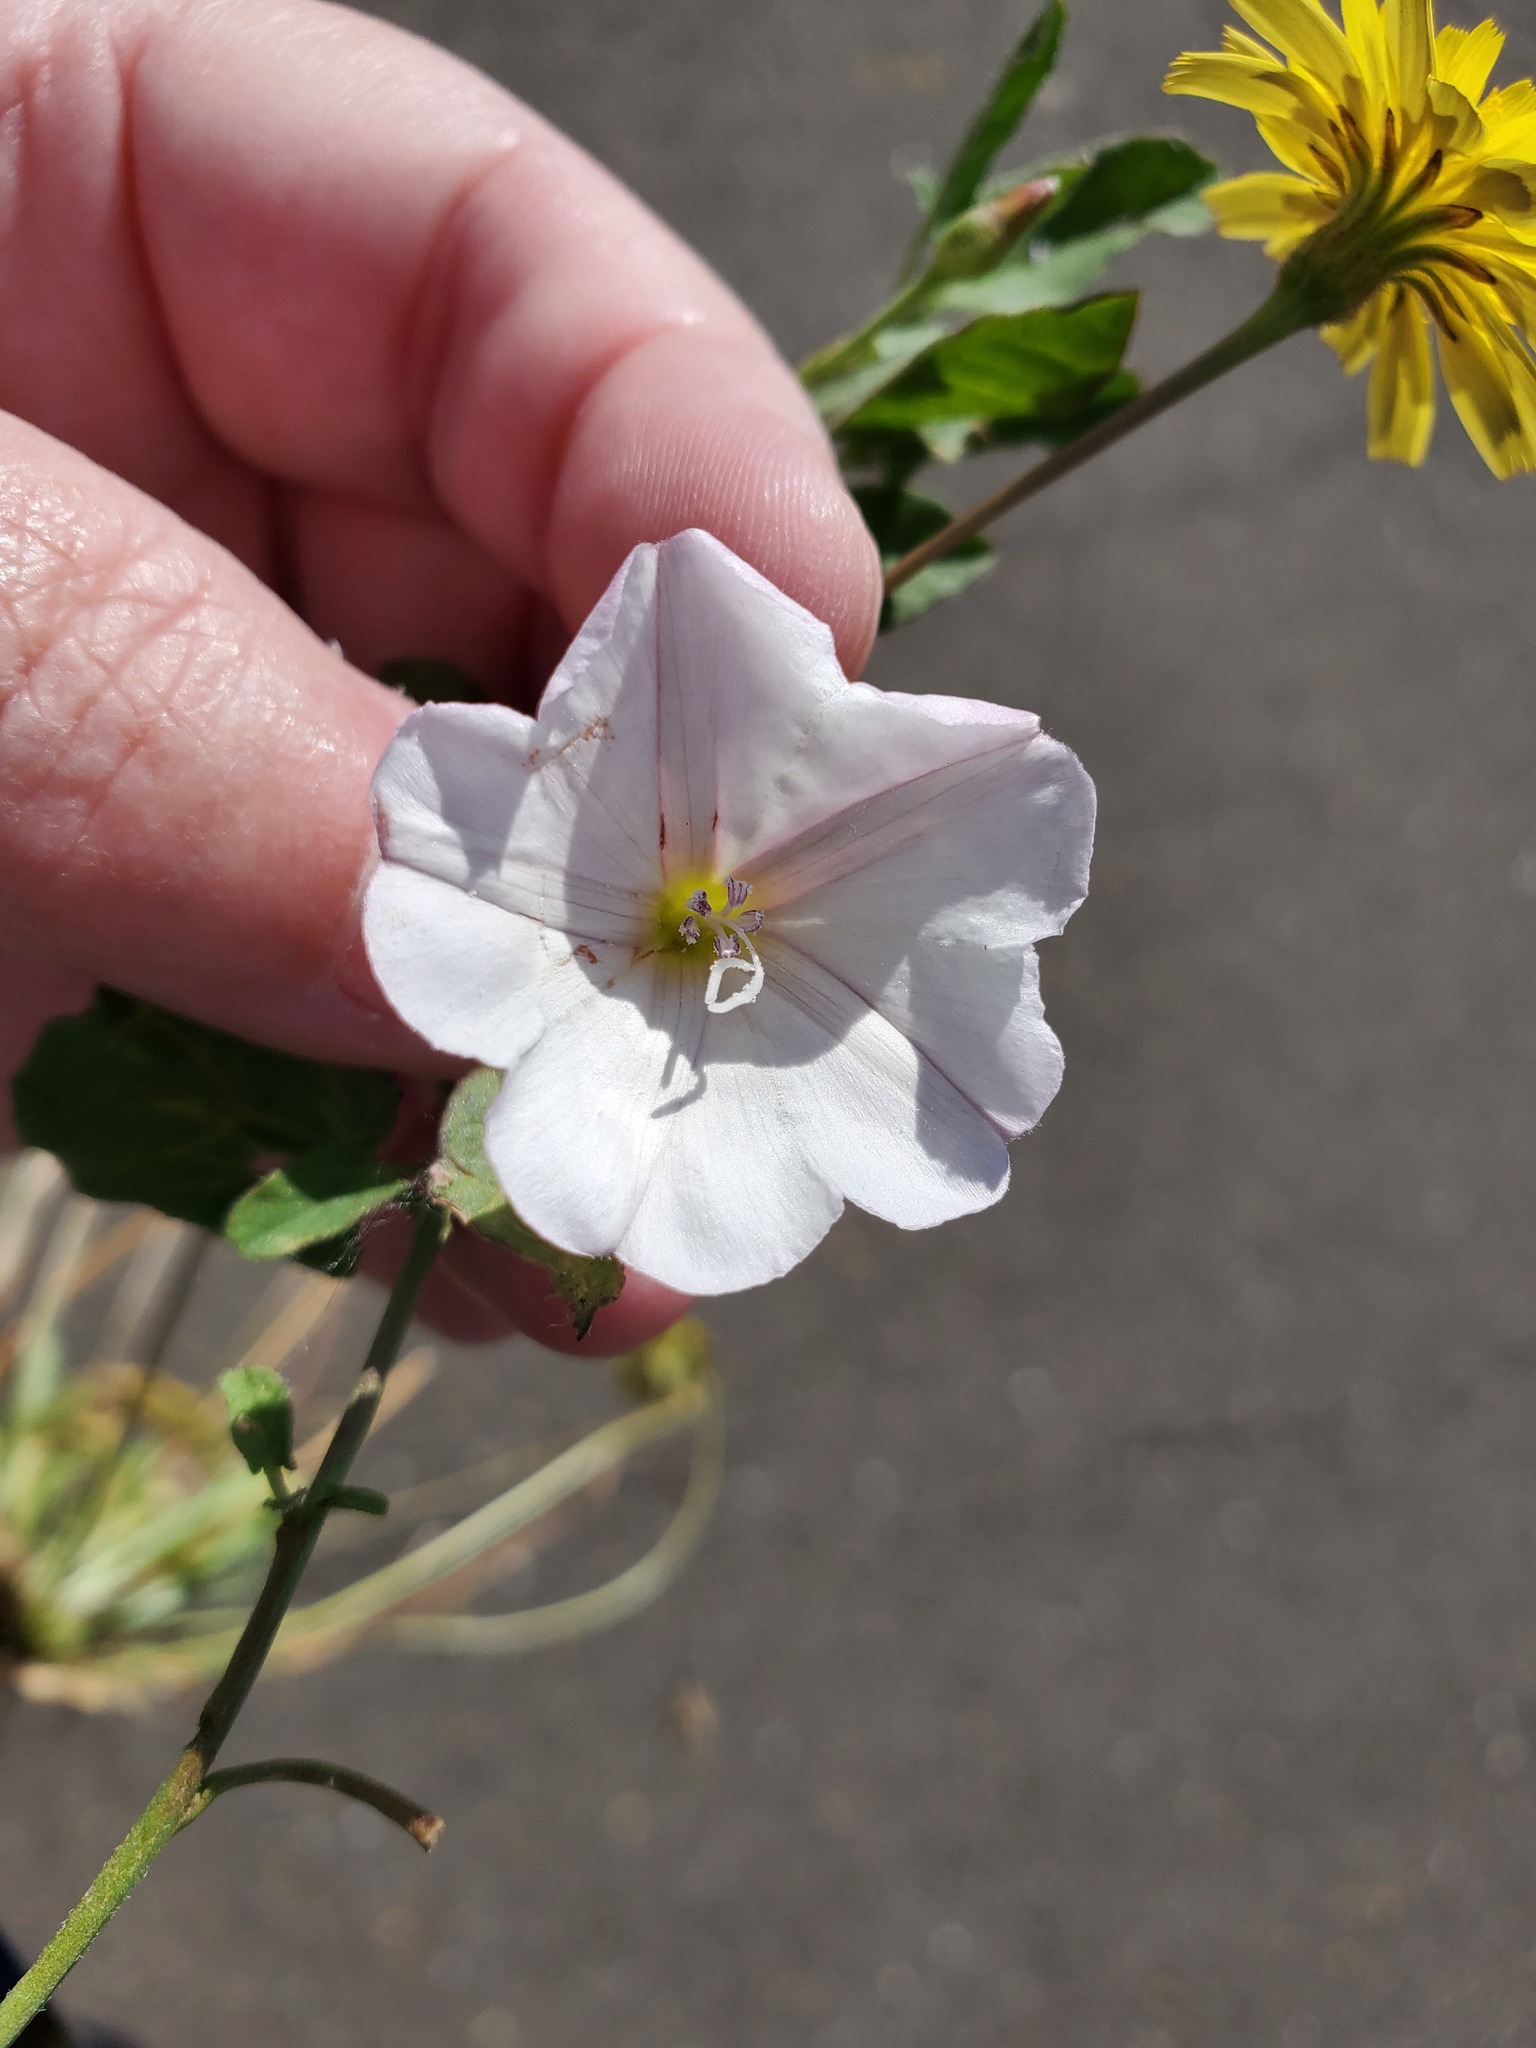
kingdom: Plantae
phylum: Tracheophyta
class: Magnoliopsida
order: Solanales
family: Convolvulaceae
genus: Convolvulus
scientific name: Convolvulus arvensis
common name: Field bindweed
